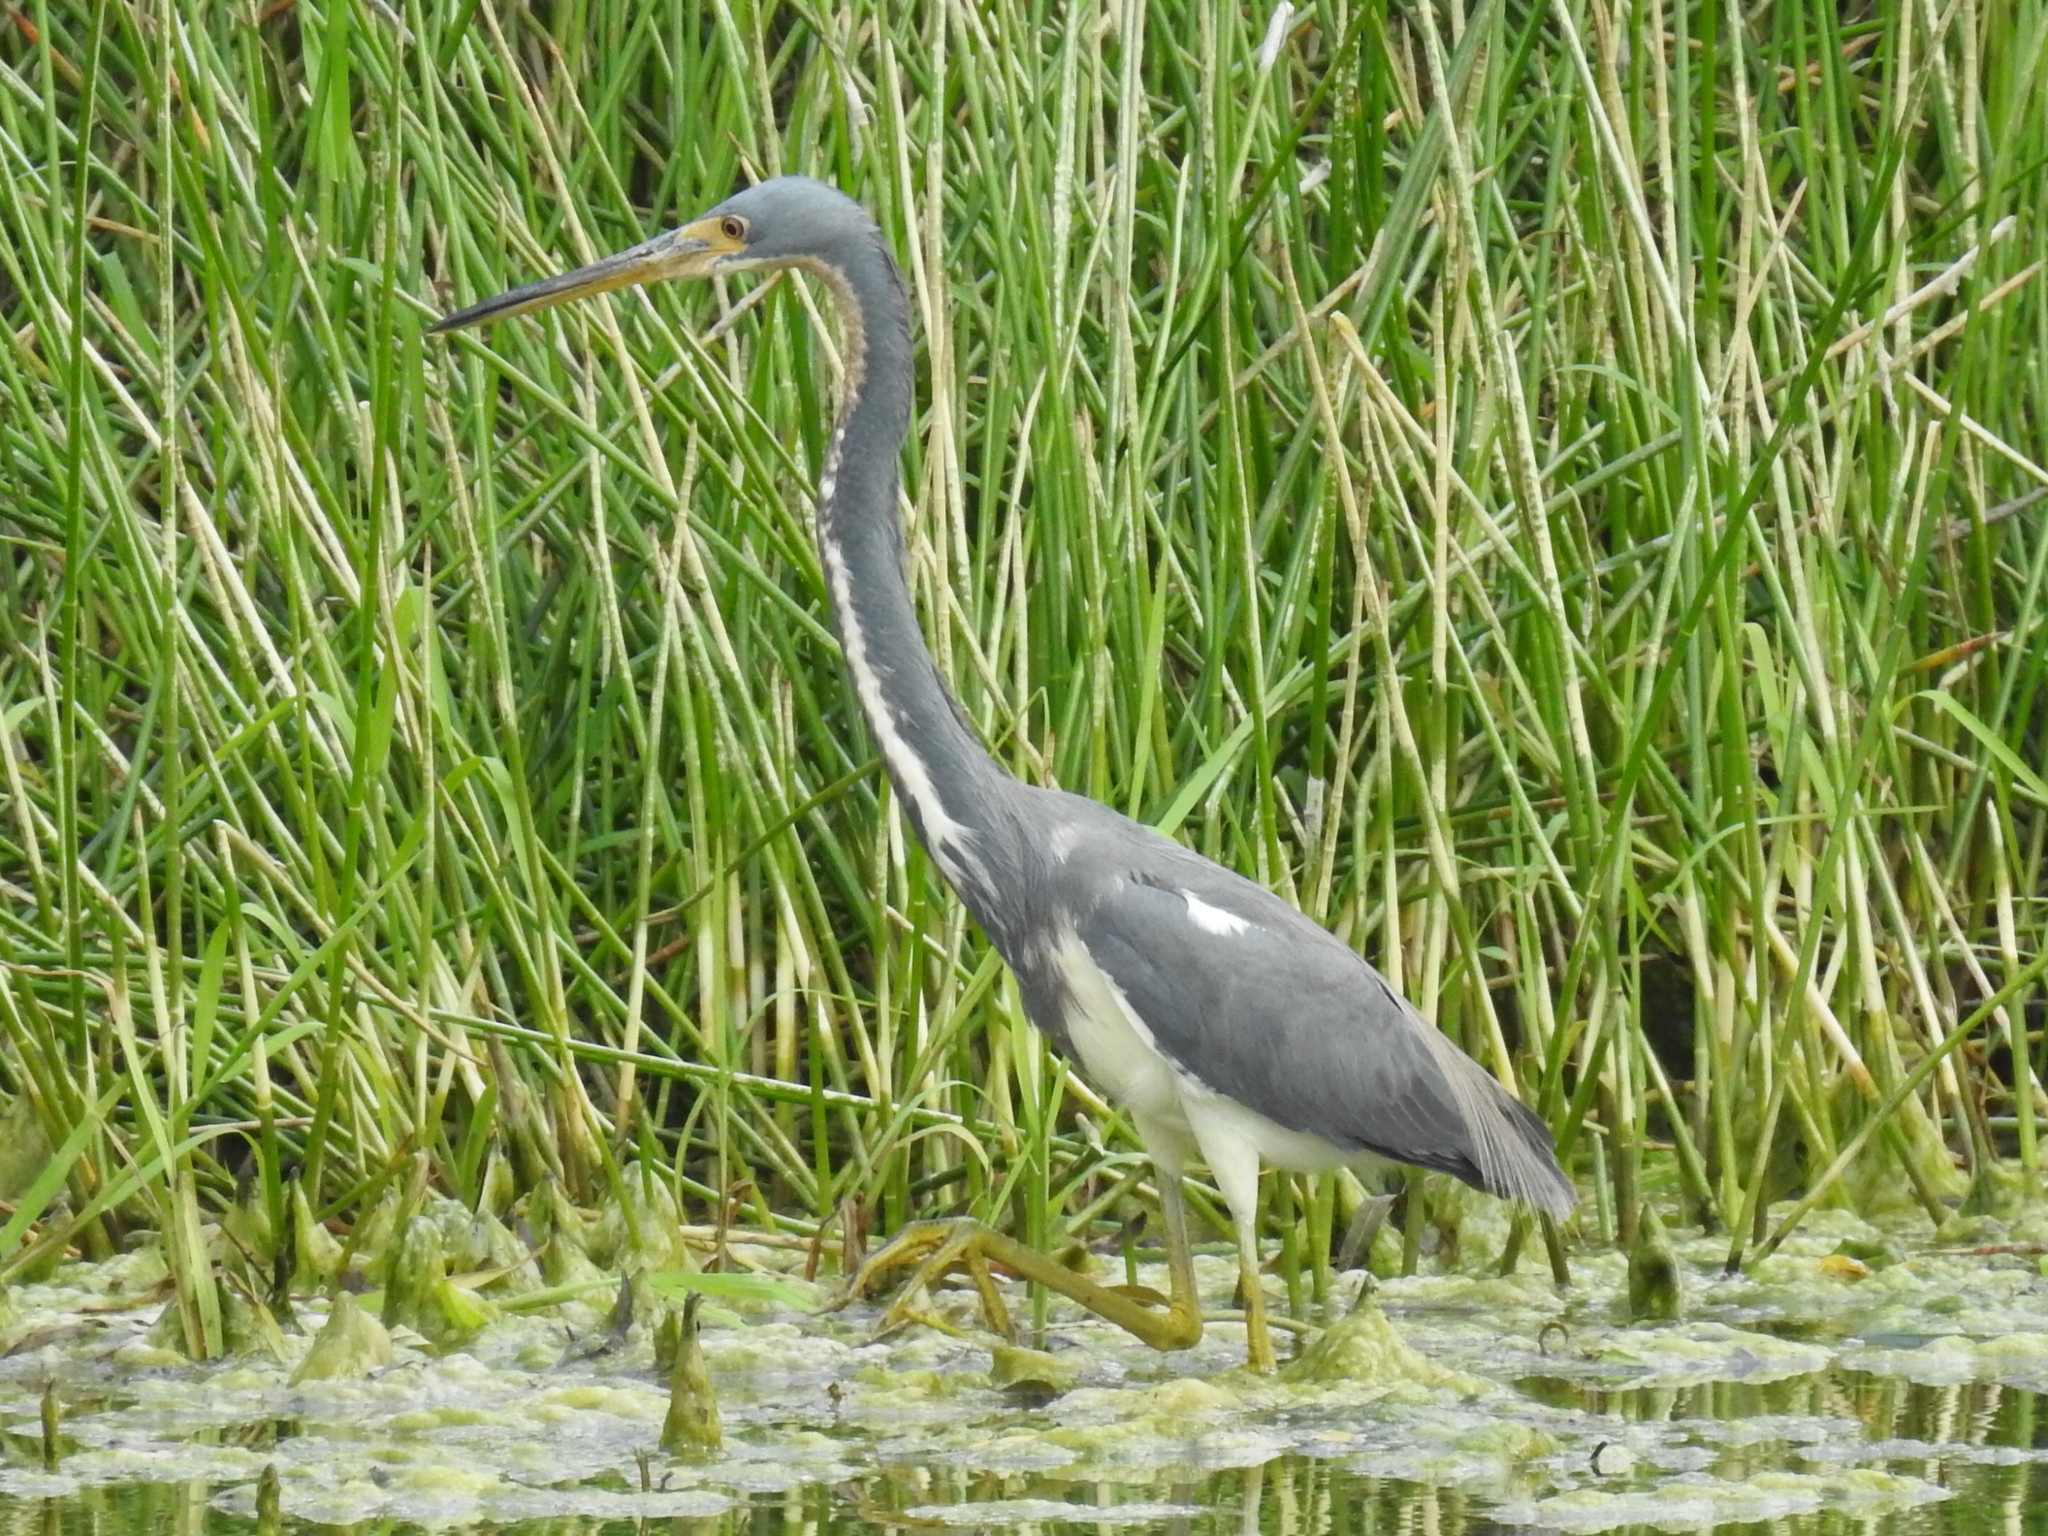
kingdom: Animalia
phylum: Chordata
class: Aves
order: Pelecaniformes
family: Ardeidae
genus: Egretta
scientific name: Egretta tricolor
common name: Tricolored heron
